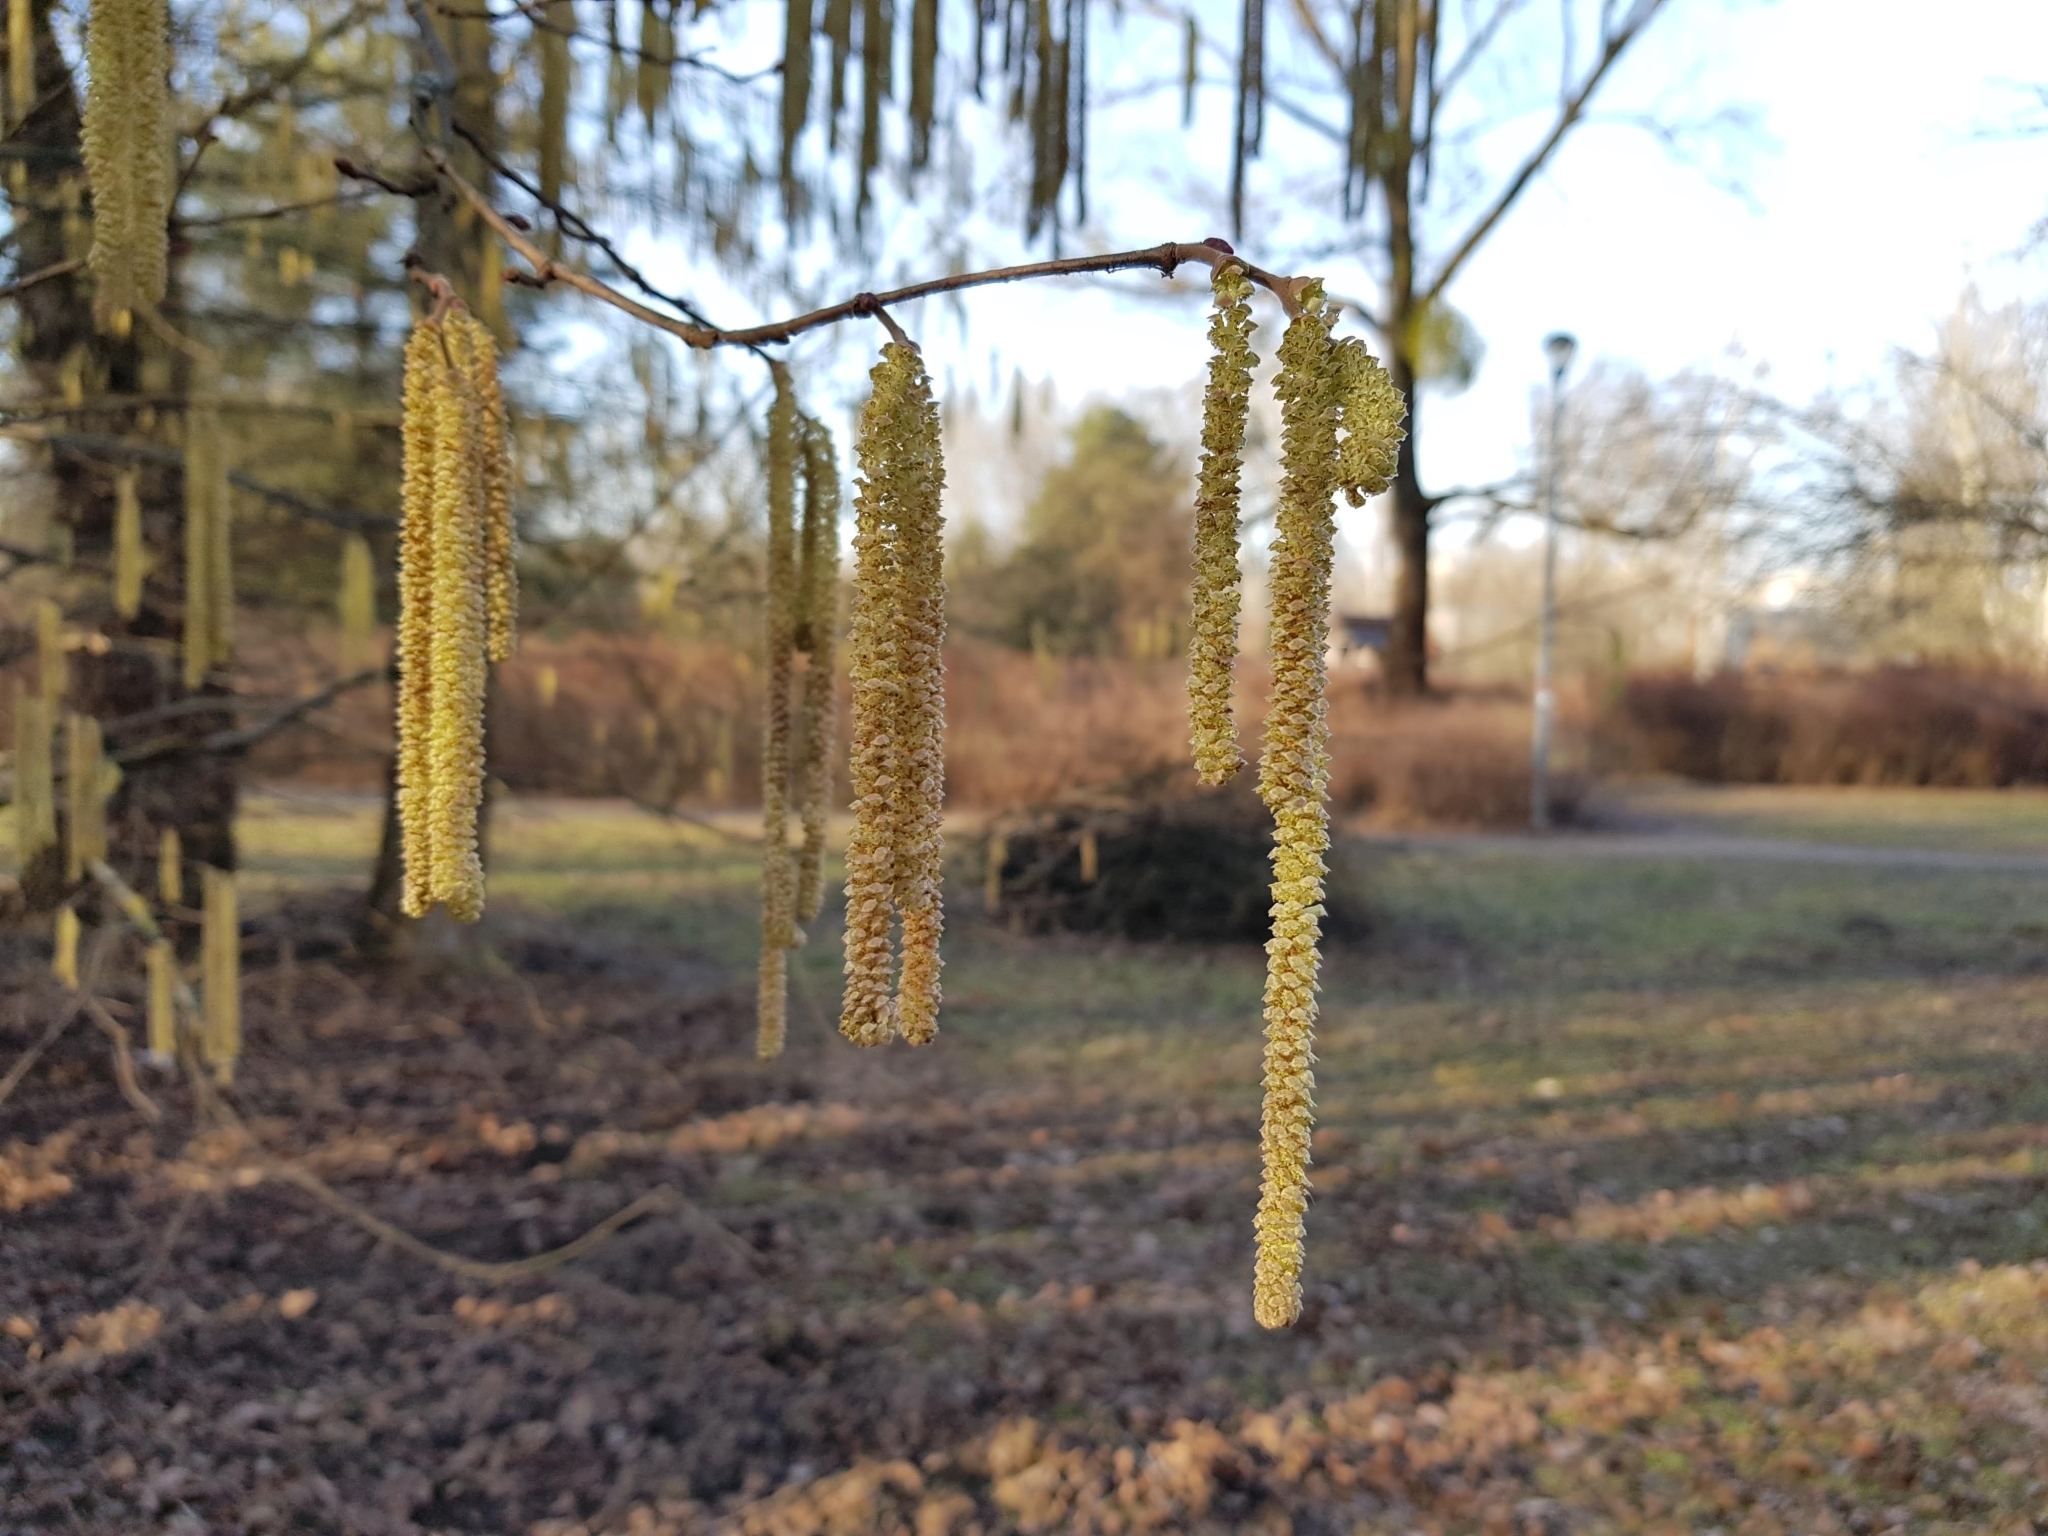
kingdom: Plantae
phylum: Tracheophyta
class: Magnoliopsida
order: Fagales
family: Betulaceae
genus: Corylus
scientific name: Corylus avellana
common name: European hazel
